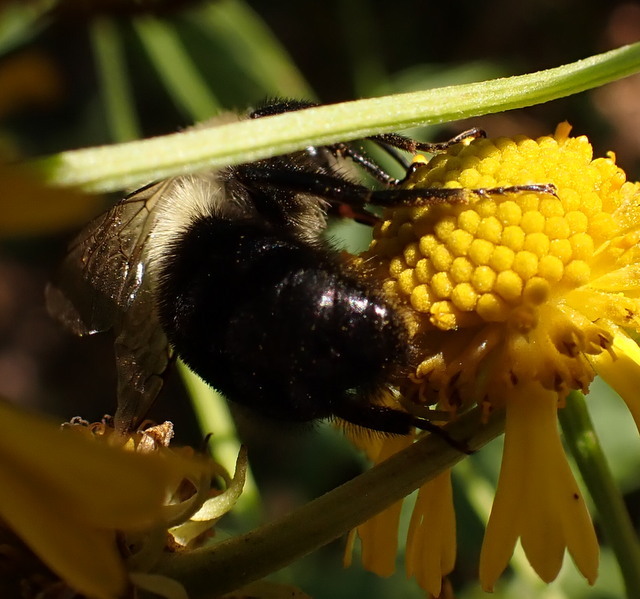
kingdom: Animalia
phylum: Arthropoda
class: Insecta
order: Hymenoptera
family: Apidae
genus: Bombus
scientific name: Bombus impatiens
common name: Common eastern bumble bee
